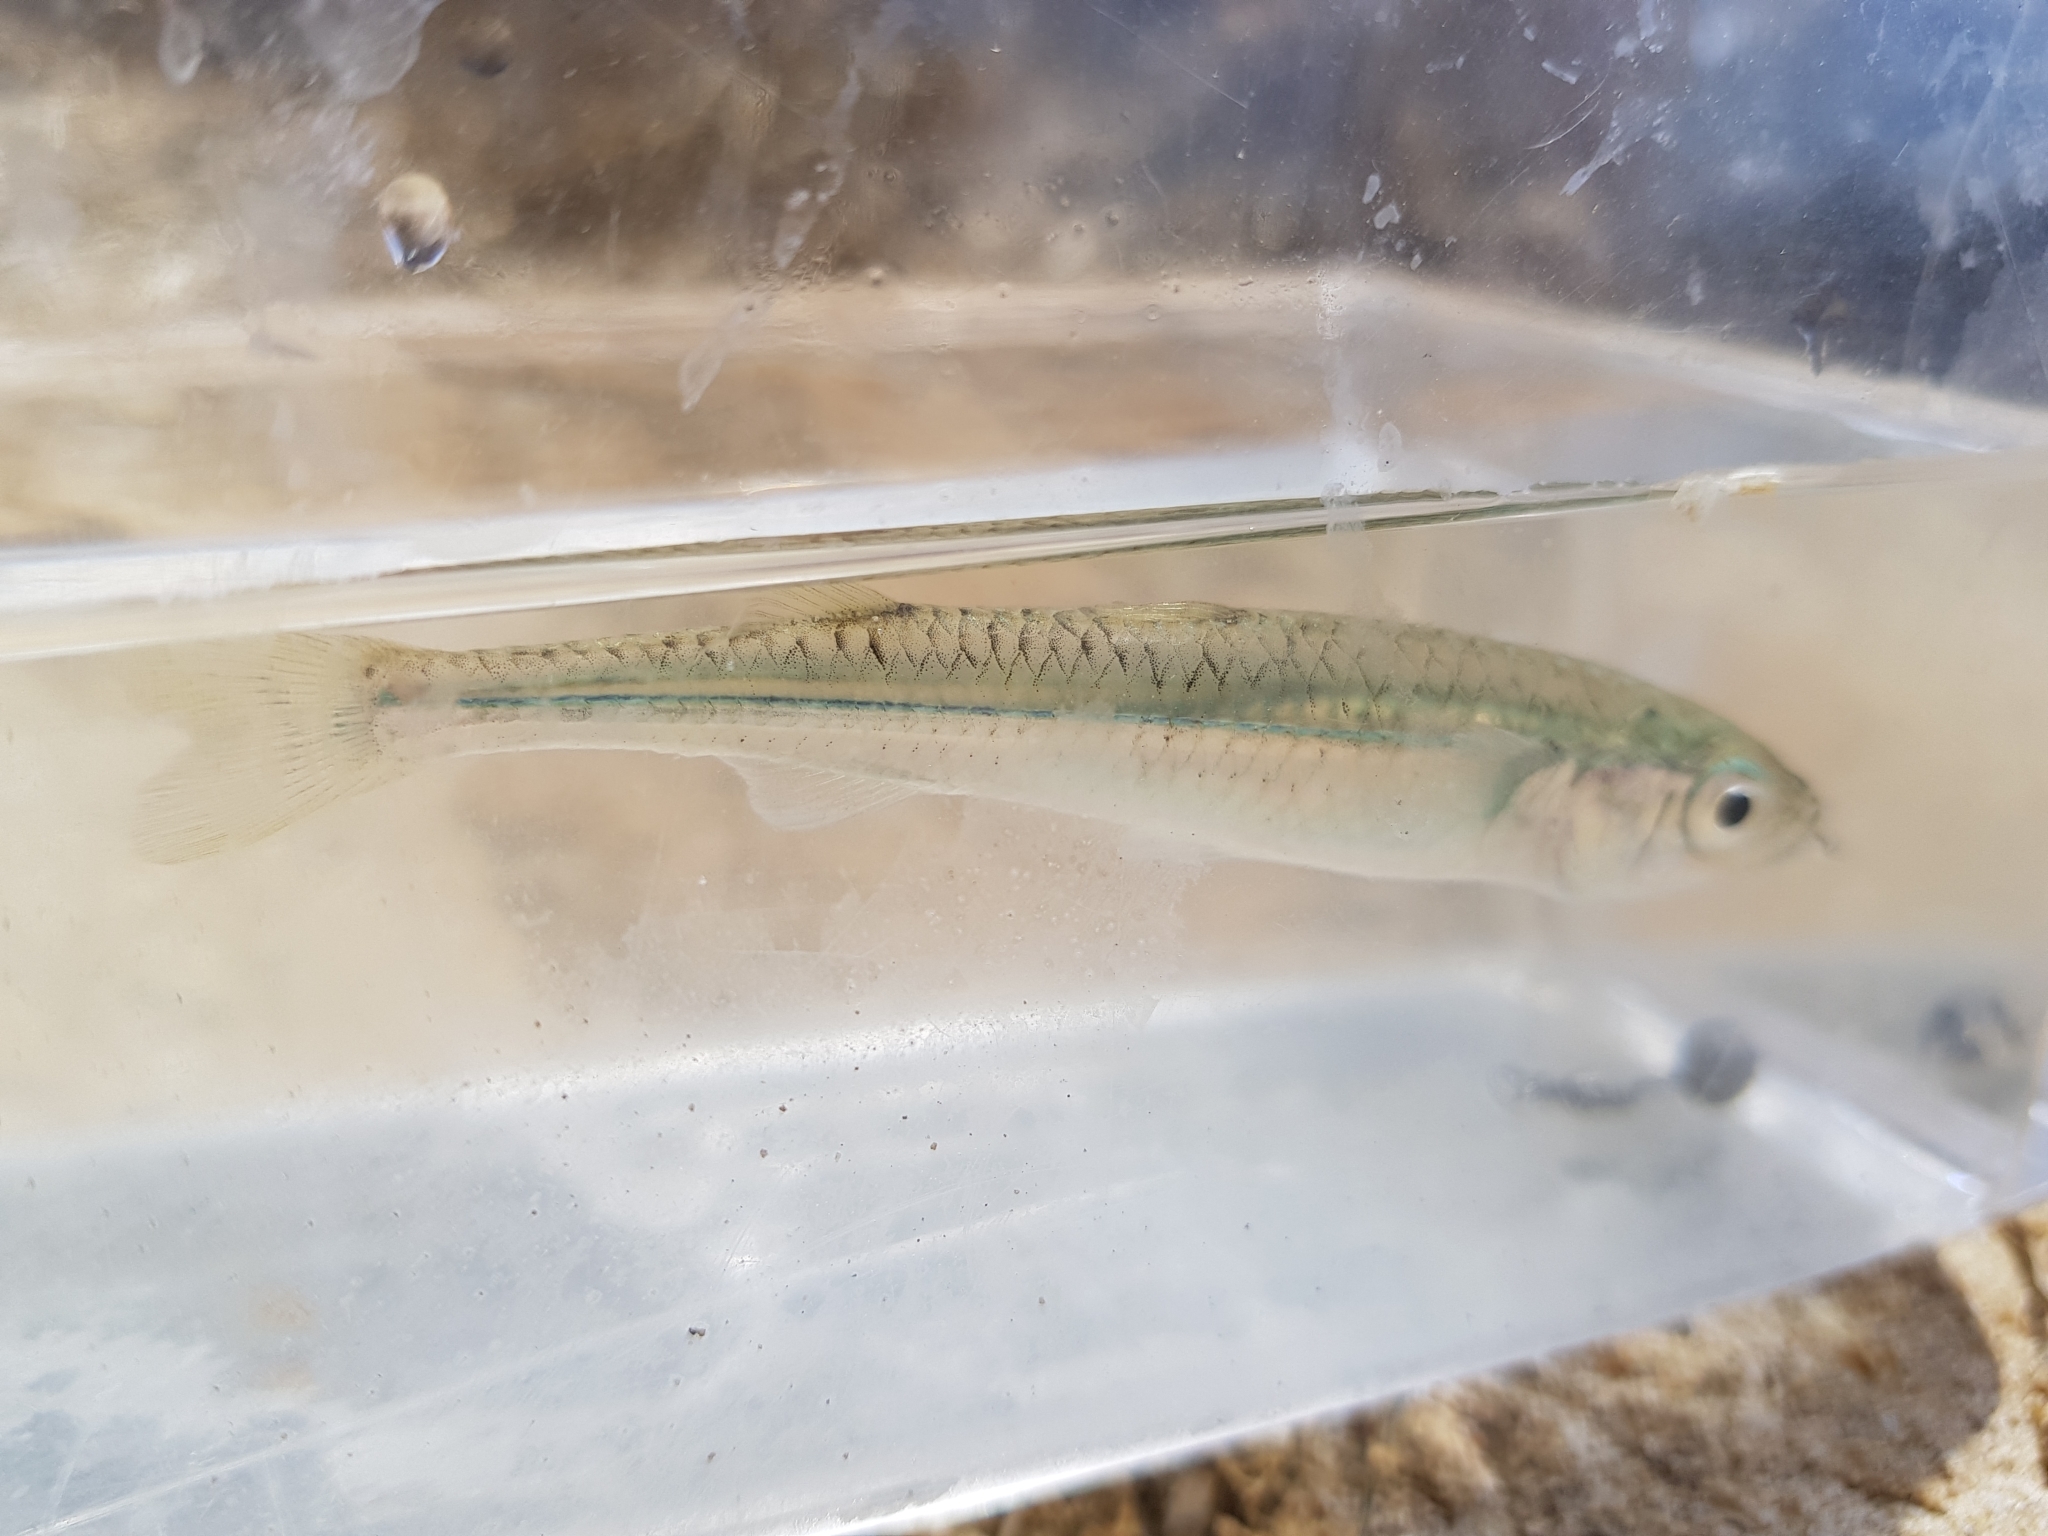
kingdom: Animalia
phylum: Chordata
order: Atheriniformes
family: Atherinidae
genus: Atherinosoma
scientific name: Atherinosoma microstoma
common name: Endora's hardyhead
